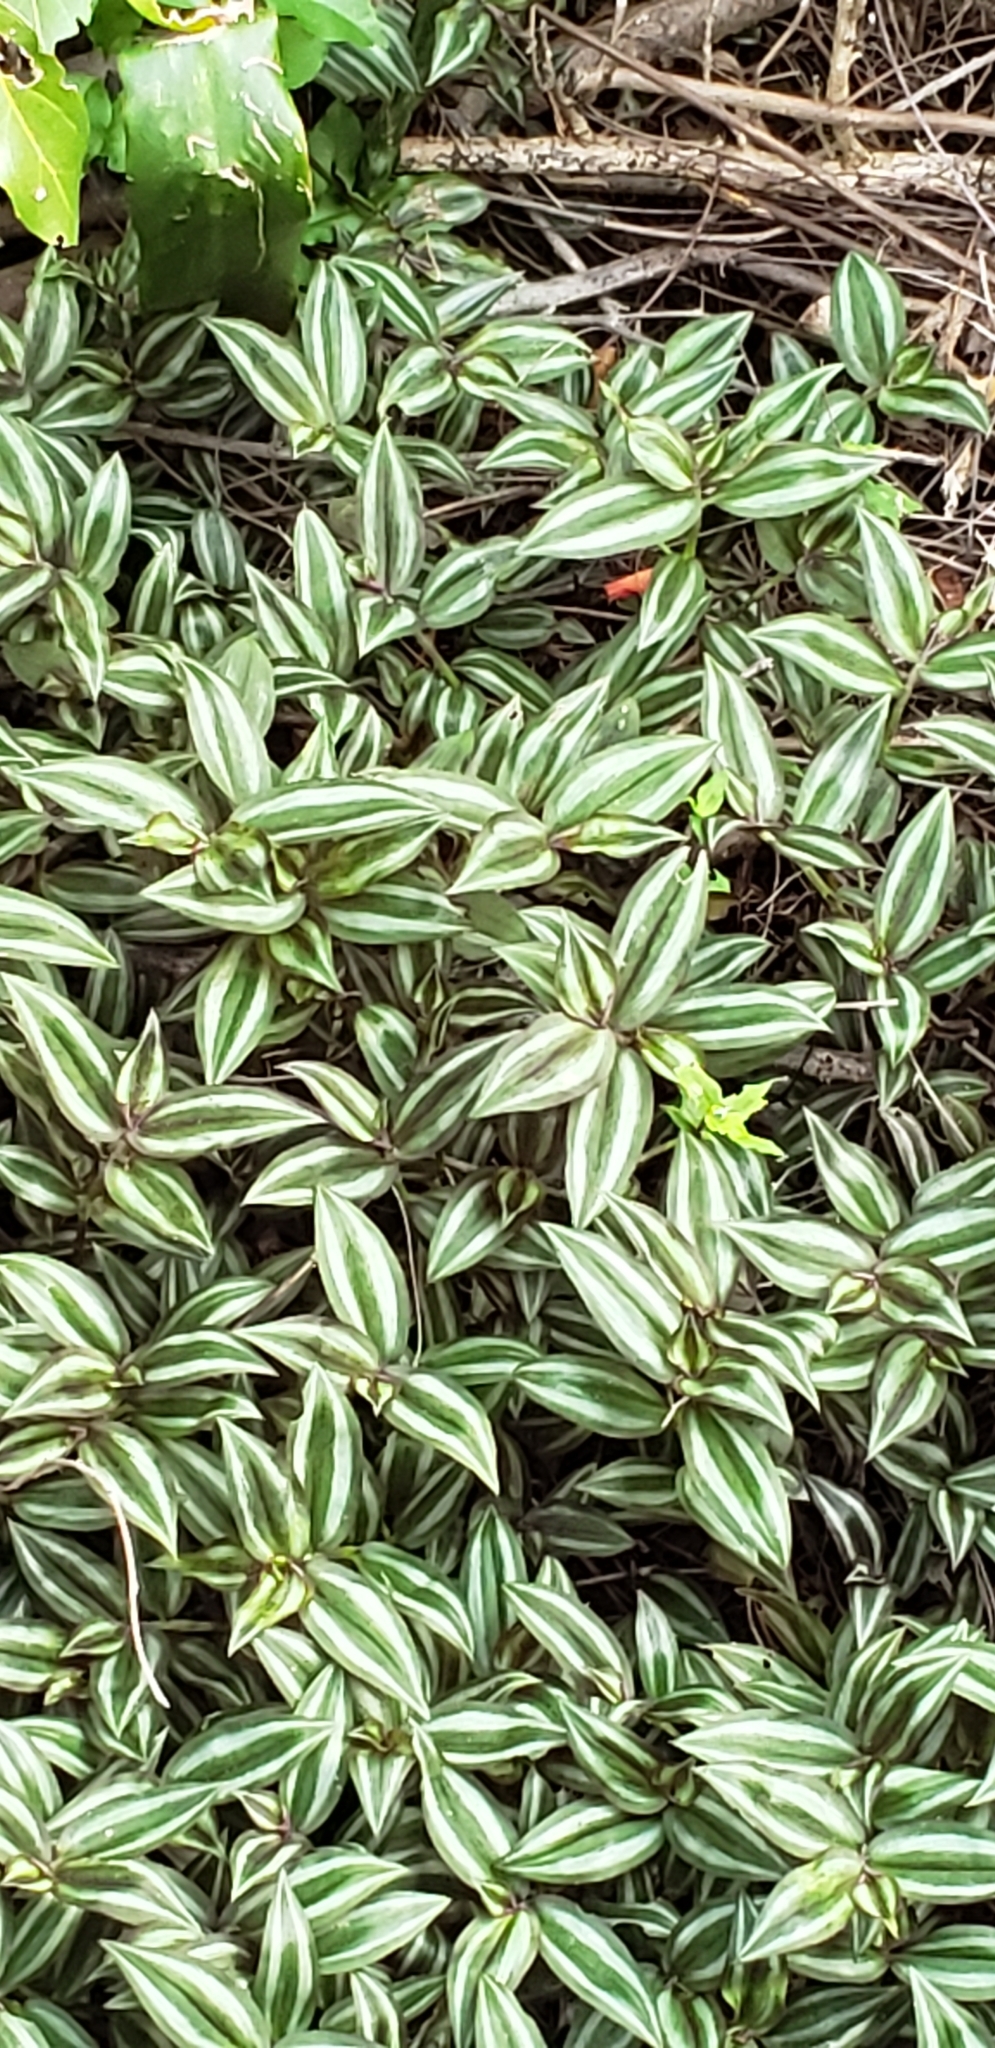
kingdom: Plantae
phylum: Tracheophyta
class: Liliopsida
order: Commelinales
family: Commelinaceae
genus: Tradescantia
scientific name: Tradescantia zebrina
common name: Inchplant
